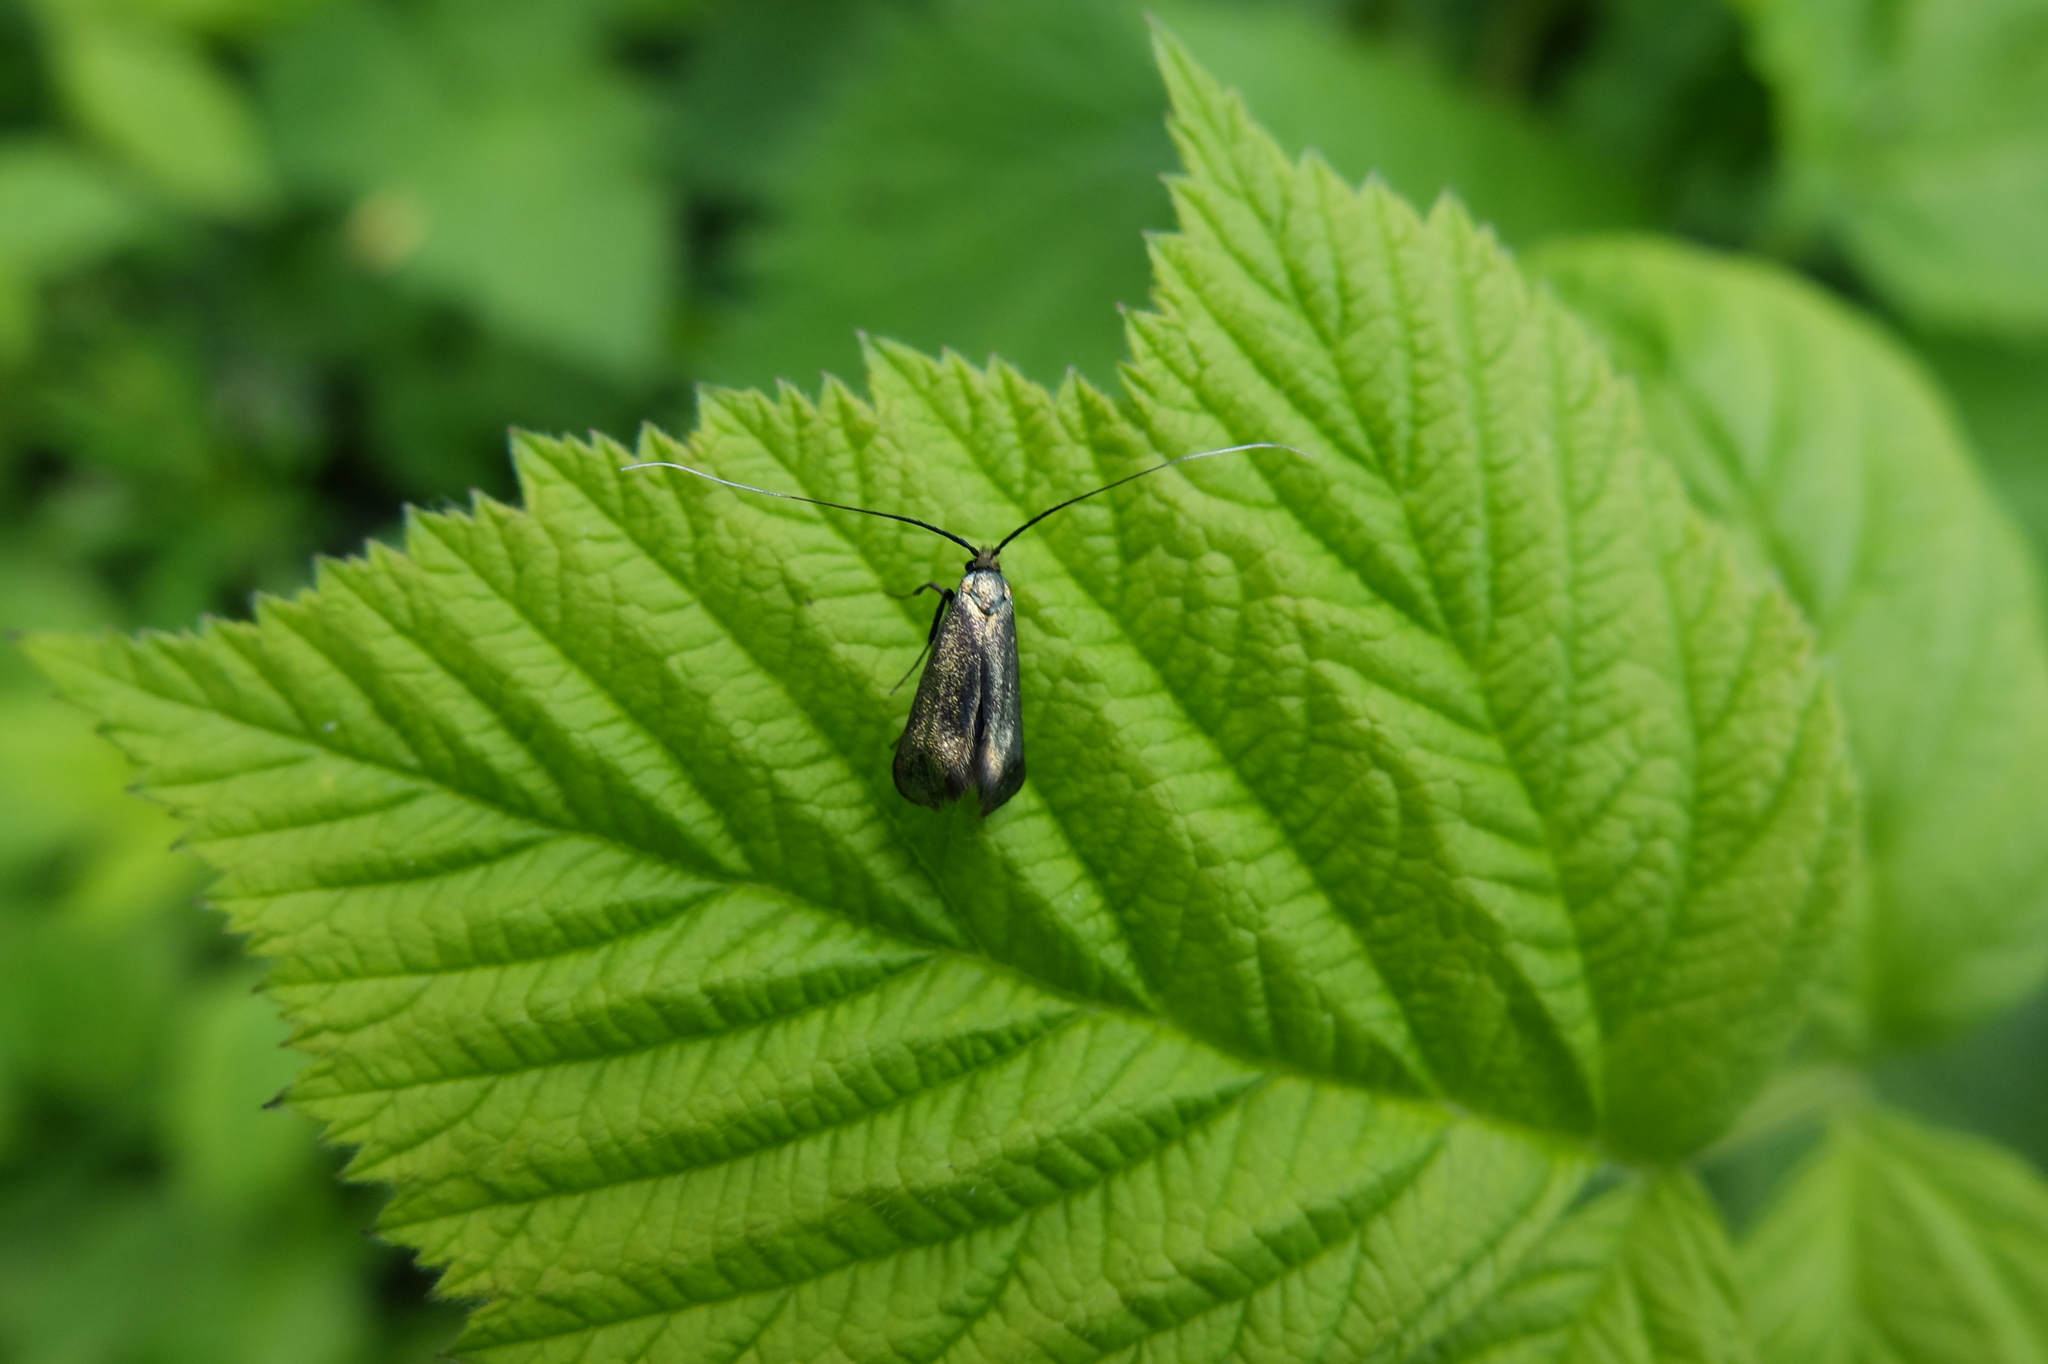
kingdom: Animalia
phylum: Arthropoda
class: Insecta
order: Lepidoptera
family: Adelidae
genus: Adela
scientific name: Adela viridella
